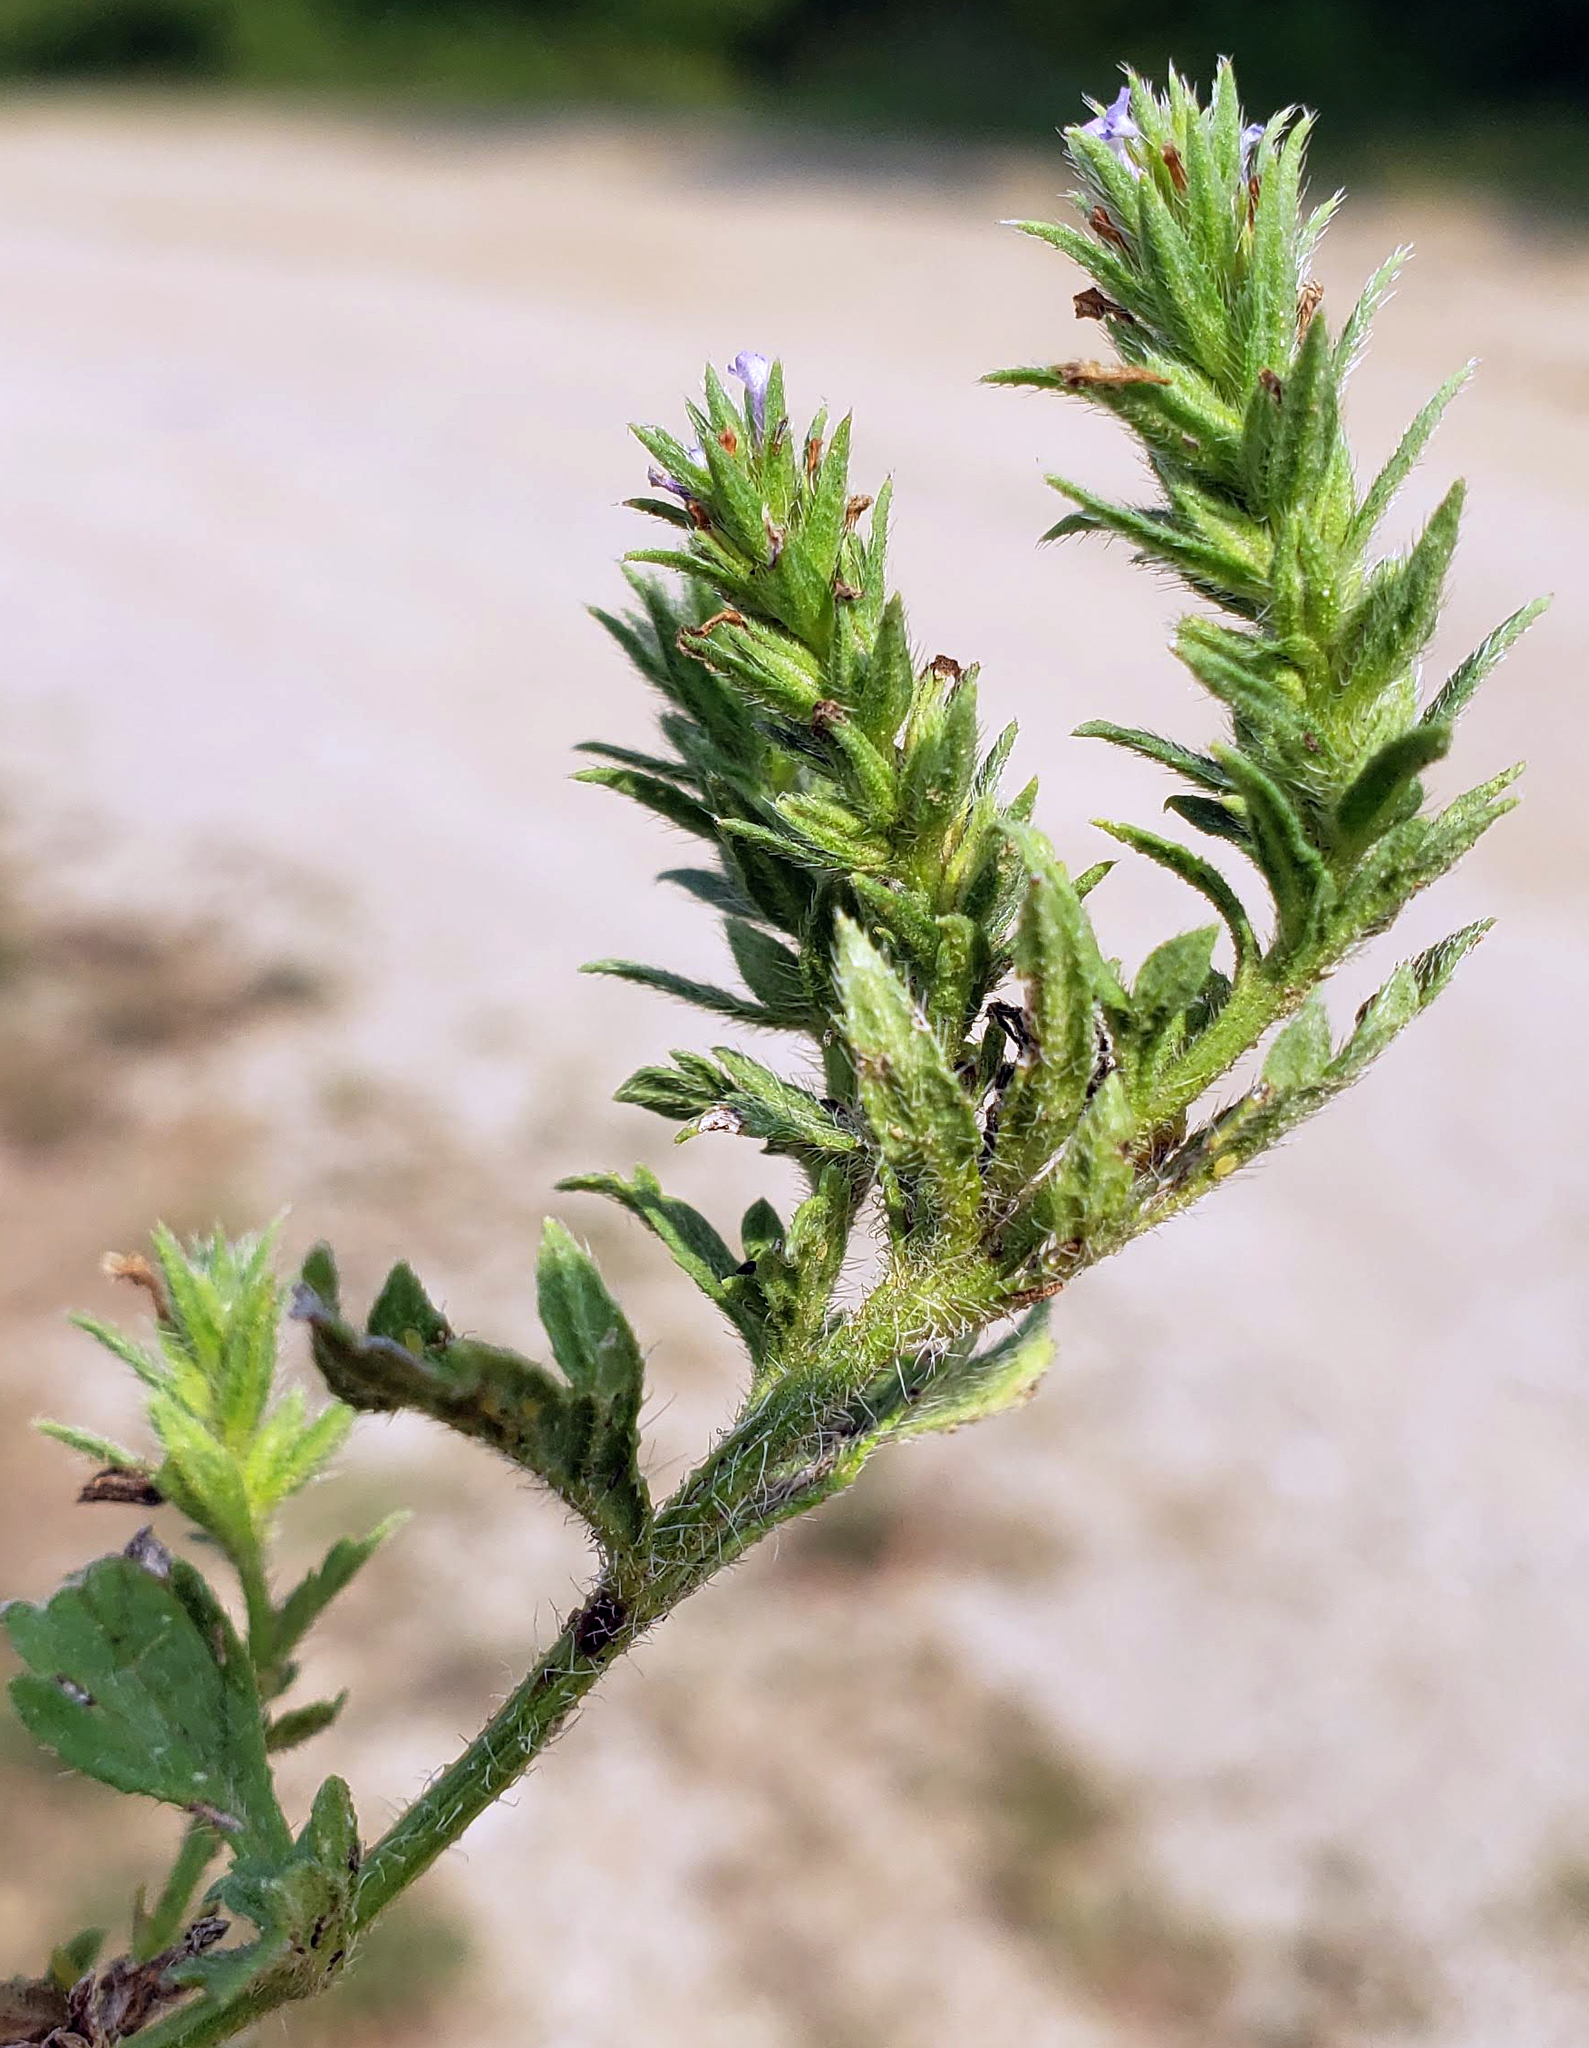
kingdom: Plantae
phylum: Tracheophyta
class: Magnoliopsida
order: Lamiales
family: Verbenaceae
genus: Verbena
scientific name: Verbena bracteata
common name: Bracted vervain
